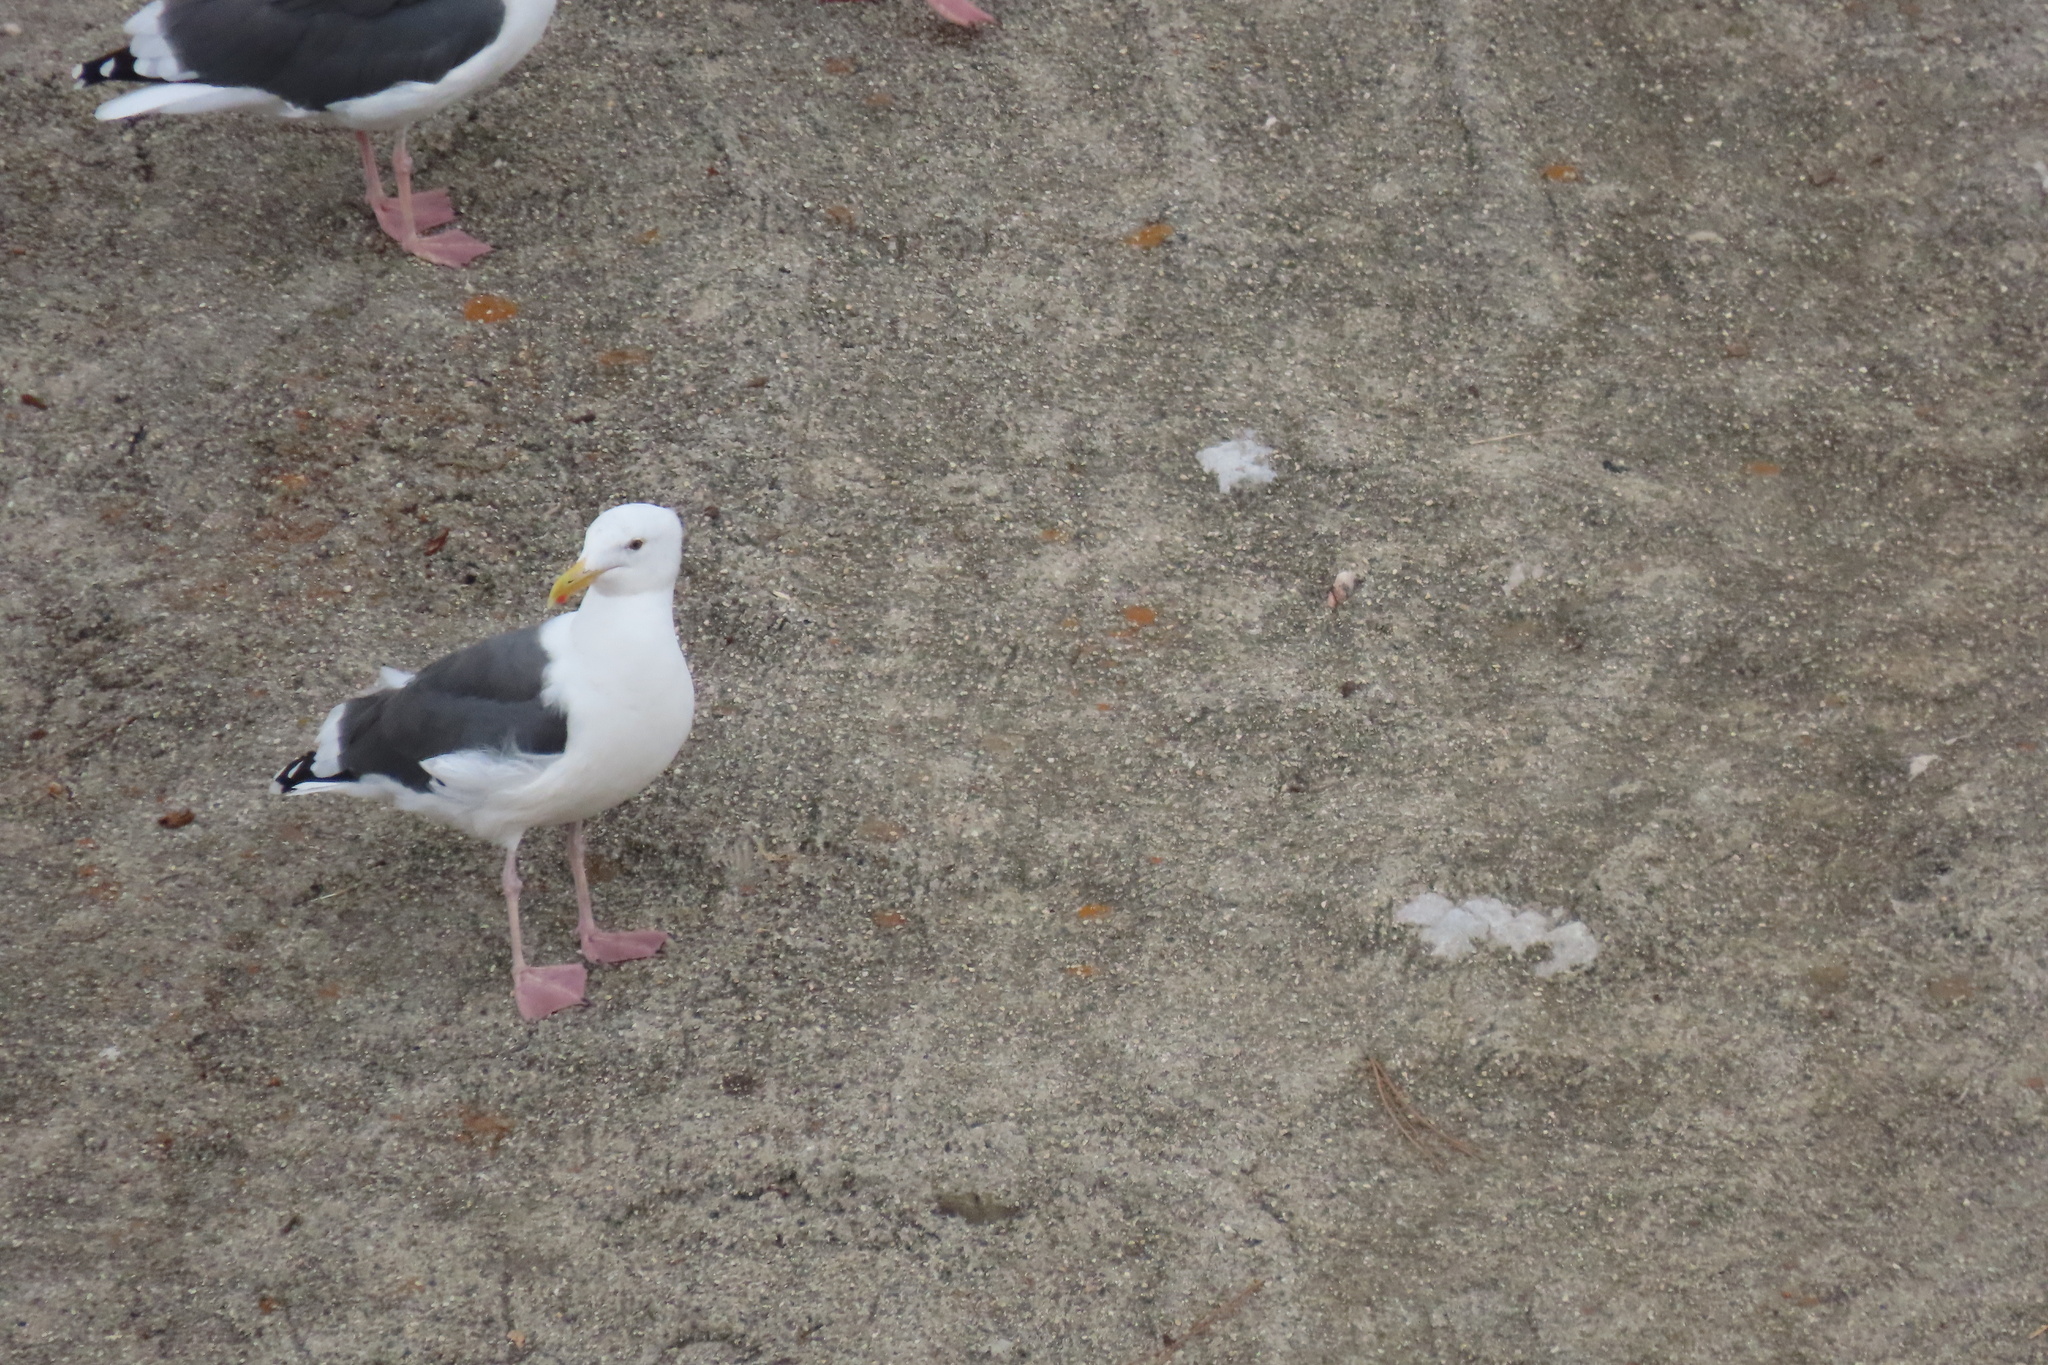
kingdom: Animalia
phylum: Chordata
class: Aves
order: Charadriiformes
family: Laridae
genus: Larus
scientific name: Larus occidentalis
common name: Western gull
